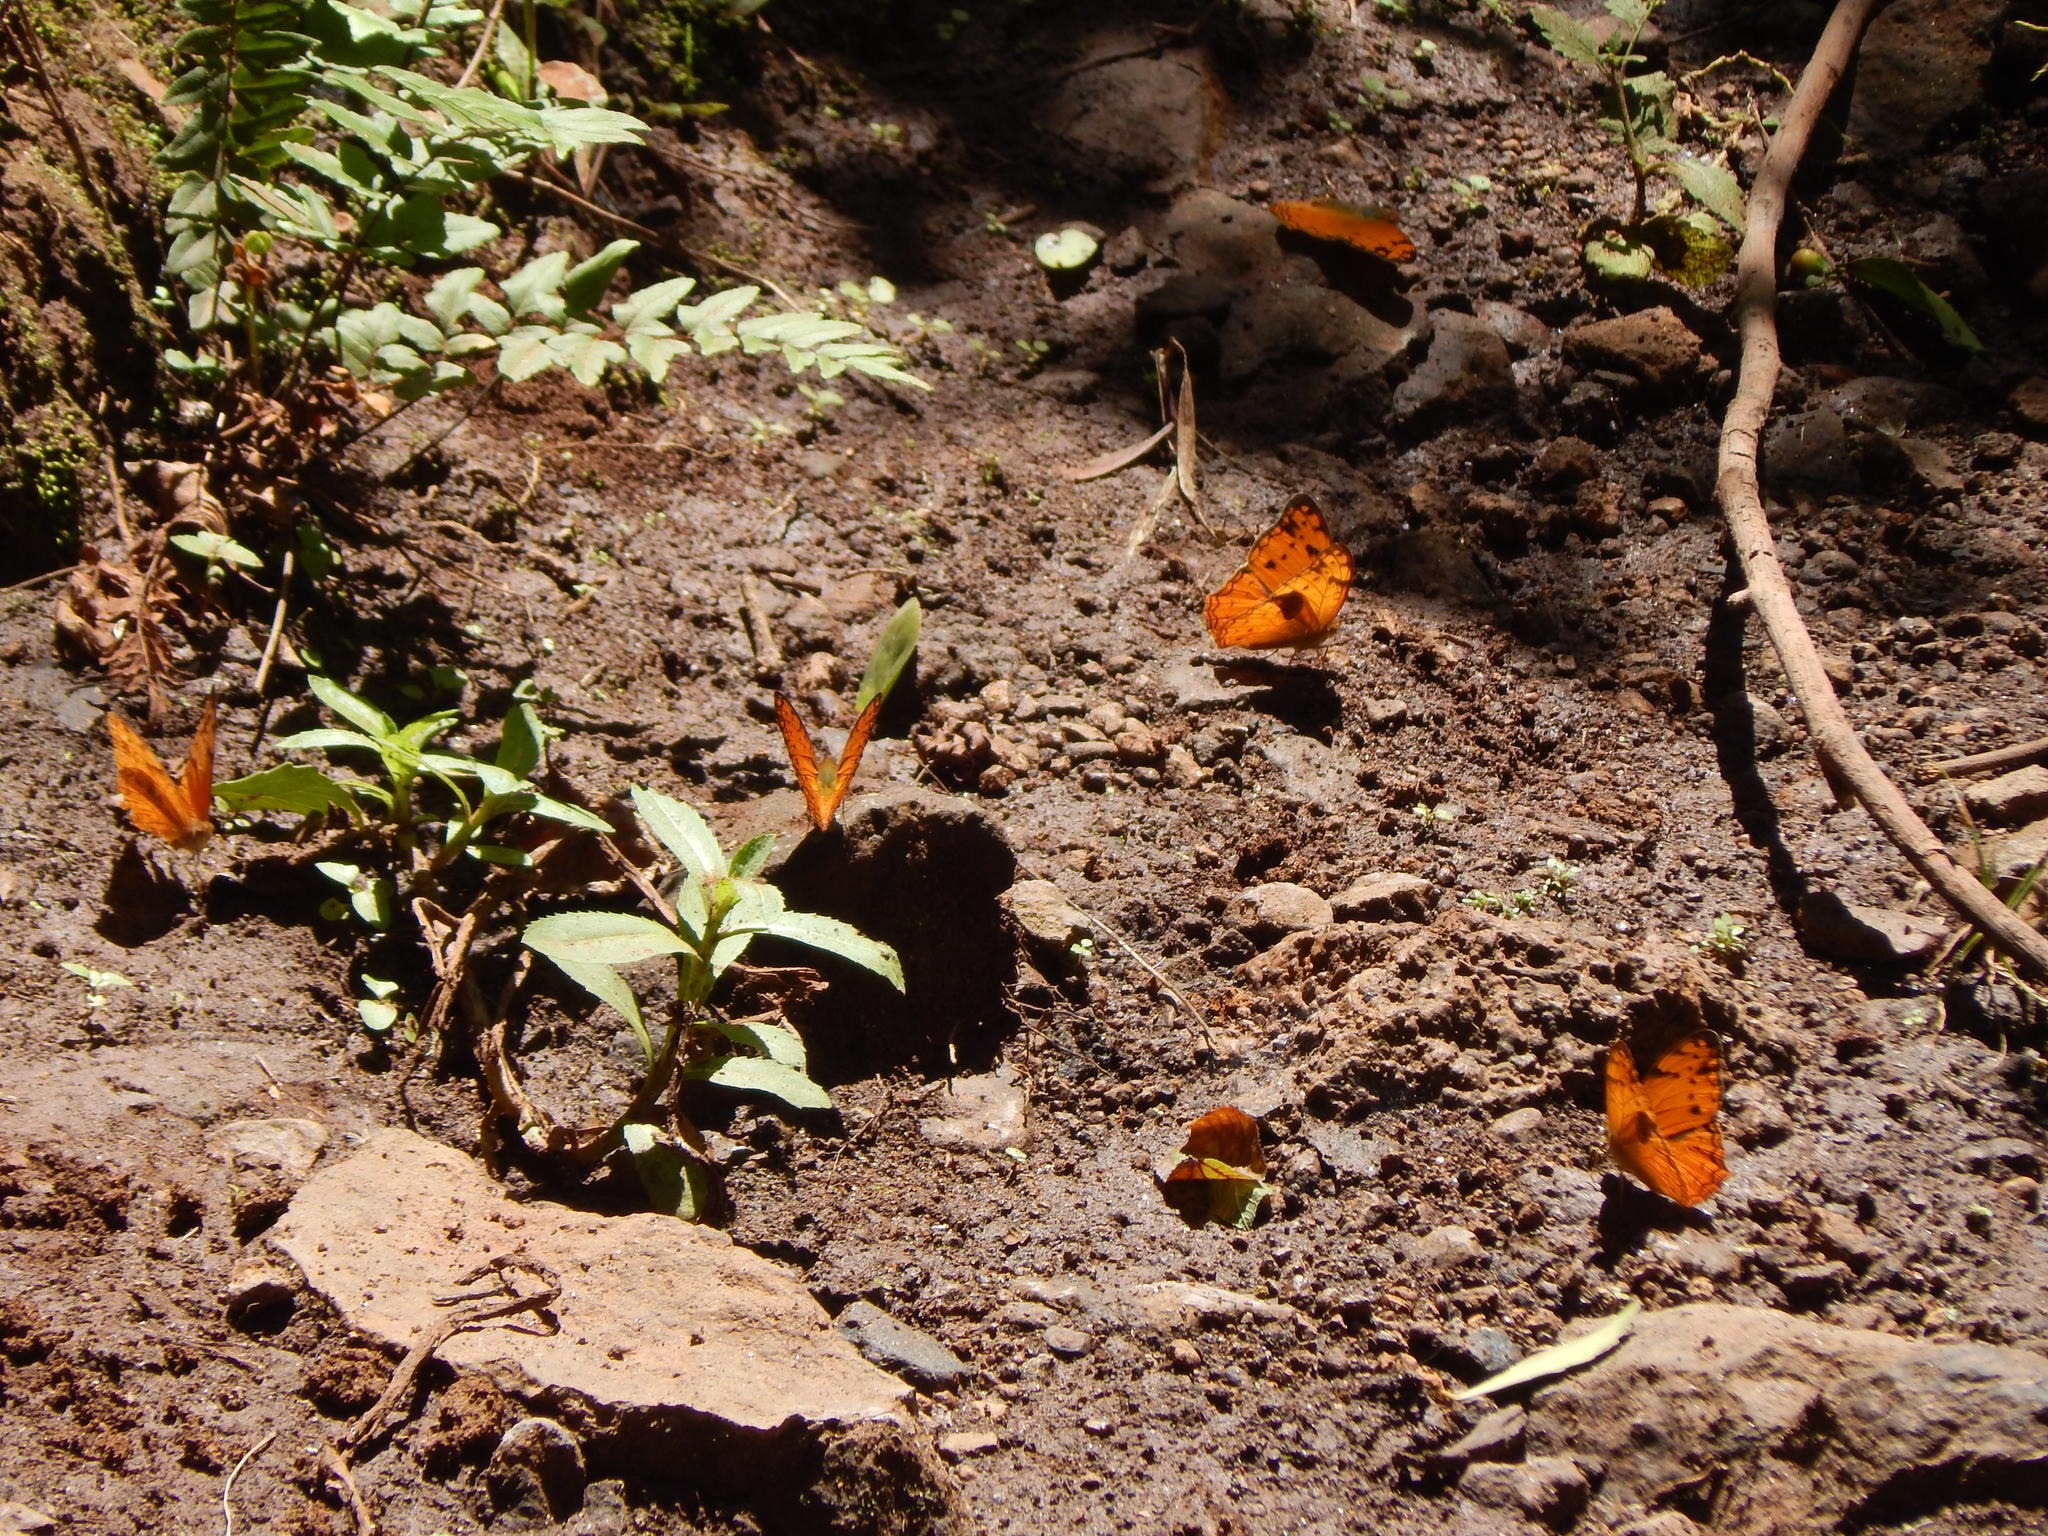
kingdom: Animalia
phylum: Arthropoda
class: Insecta
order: Lepidoptera
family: Nymphalidae
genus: Lachnoptera
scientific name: Lachnoptera ayresii
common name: Blotched leopard
